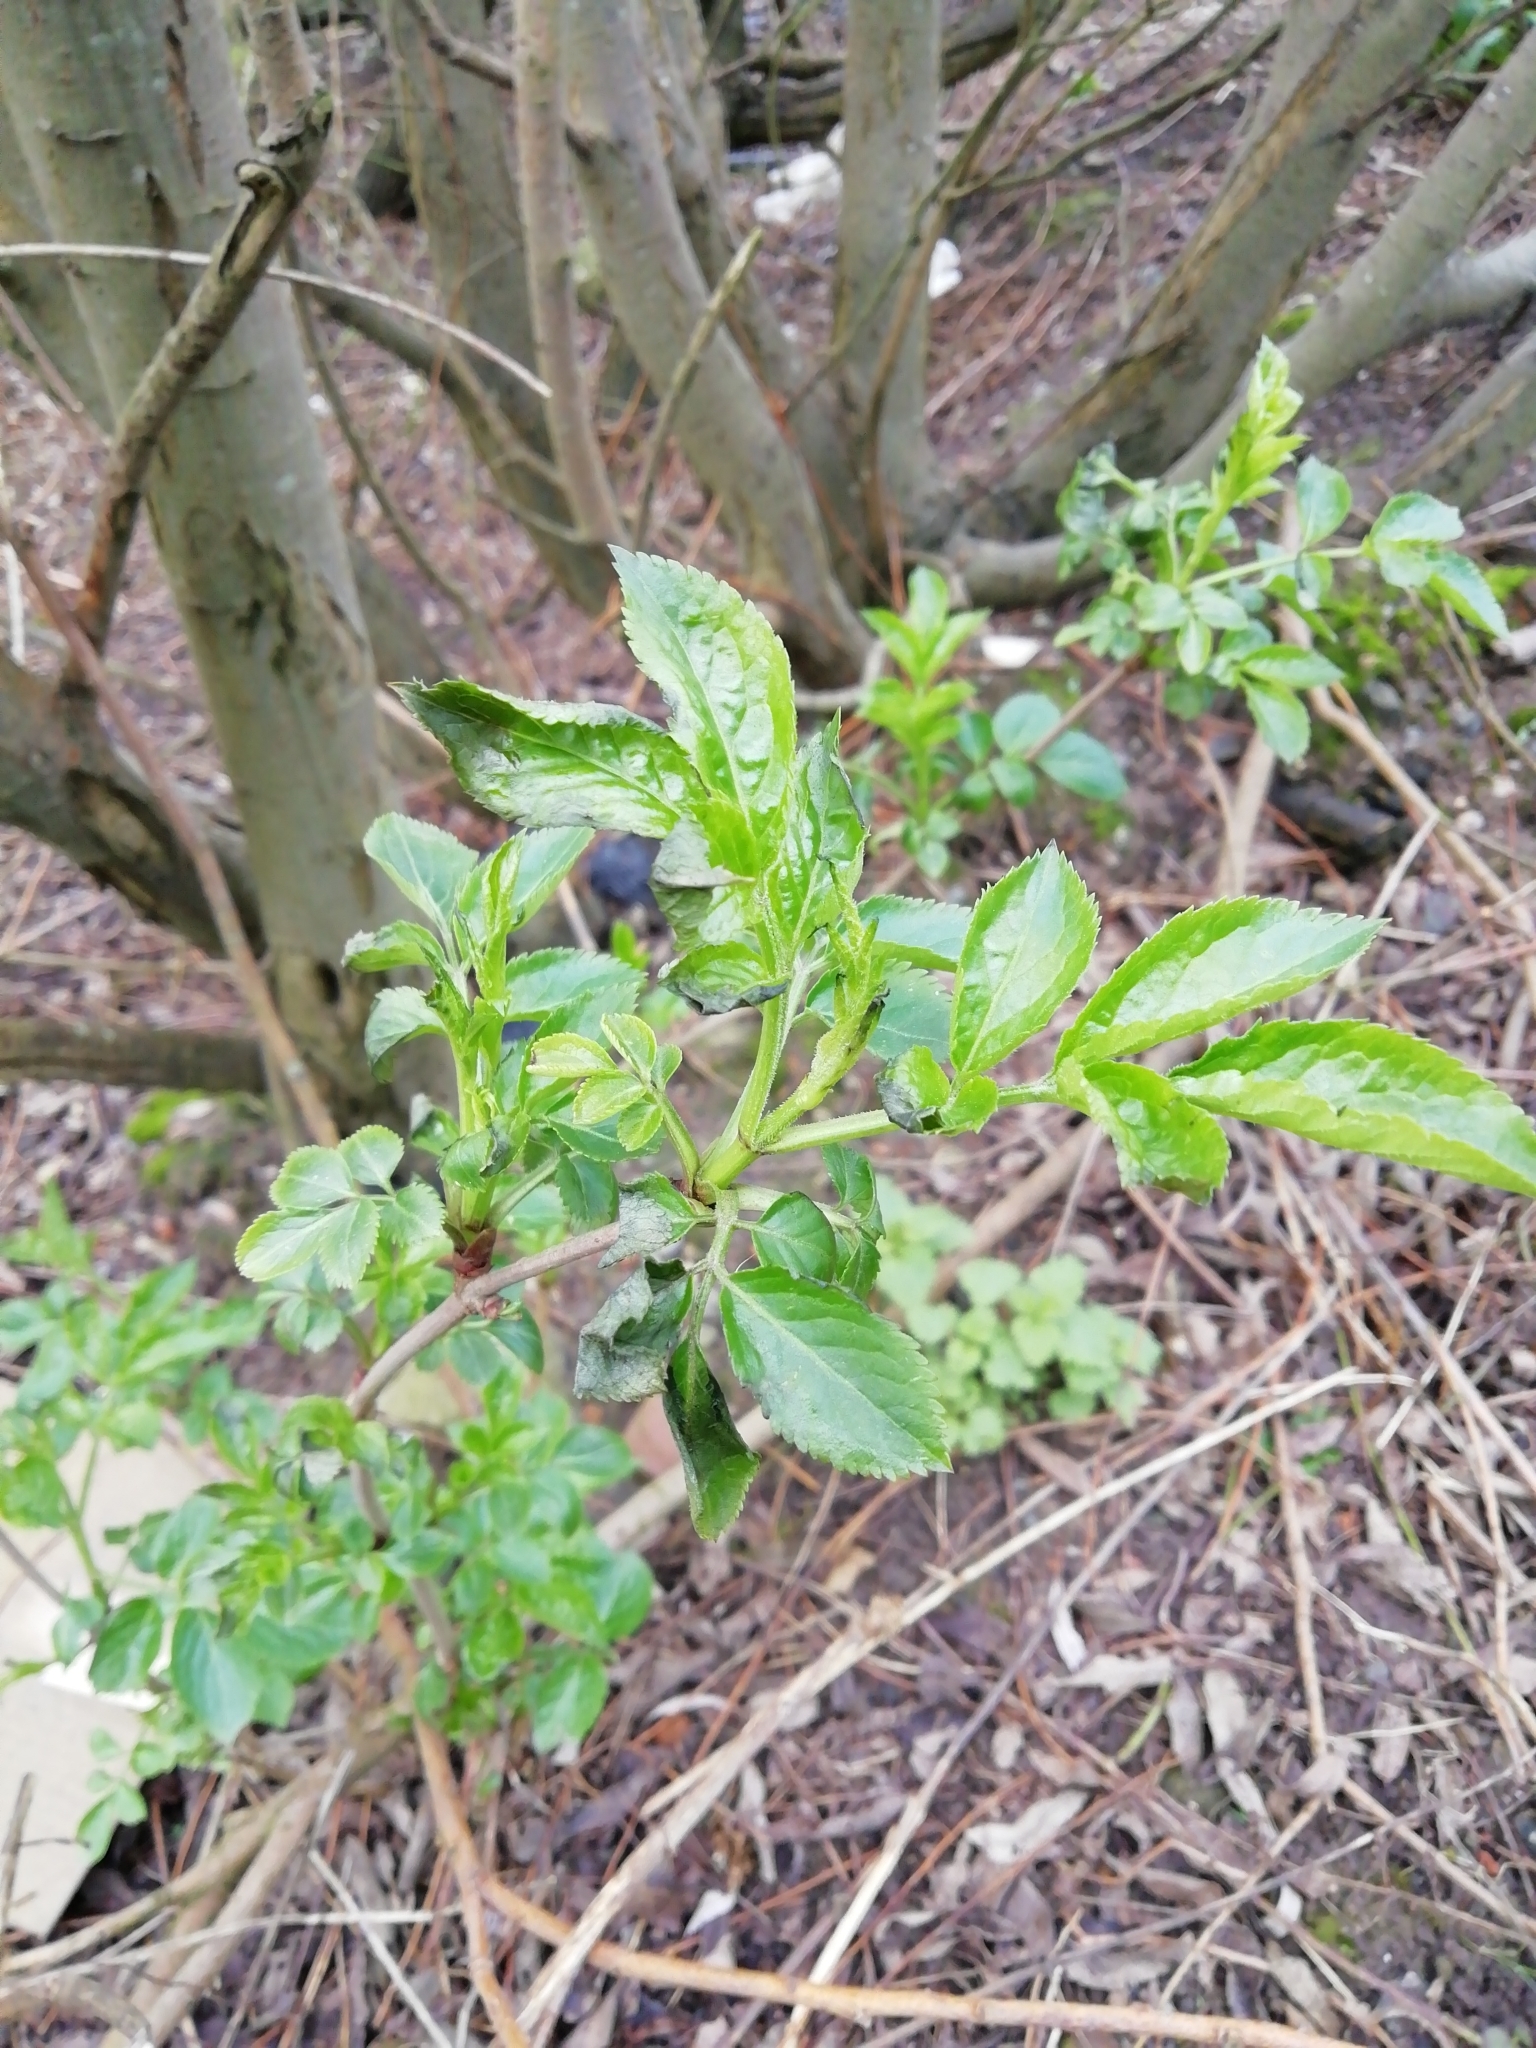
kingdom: Plantae
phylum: Tracheophyta
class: Magnoliopsida
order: Dipsacales
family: Viburnaceae
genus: Sambucus
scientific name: Sambucus nigra
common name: Elder
